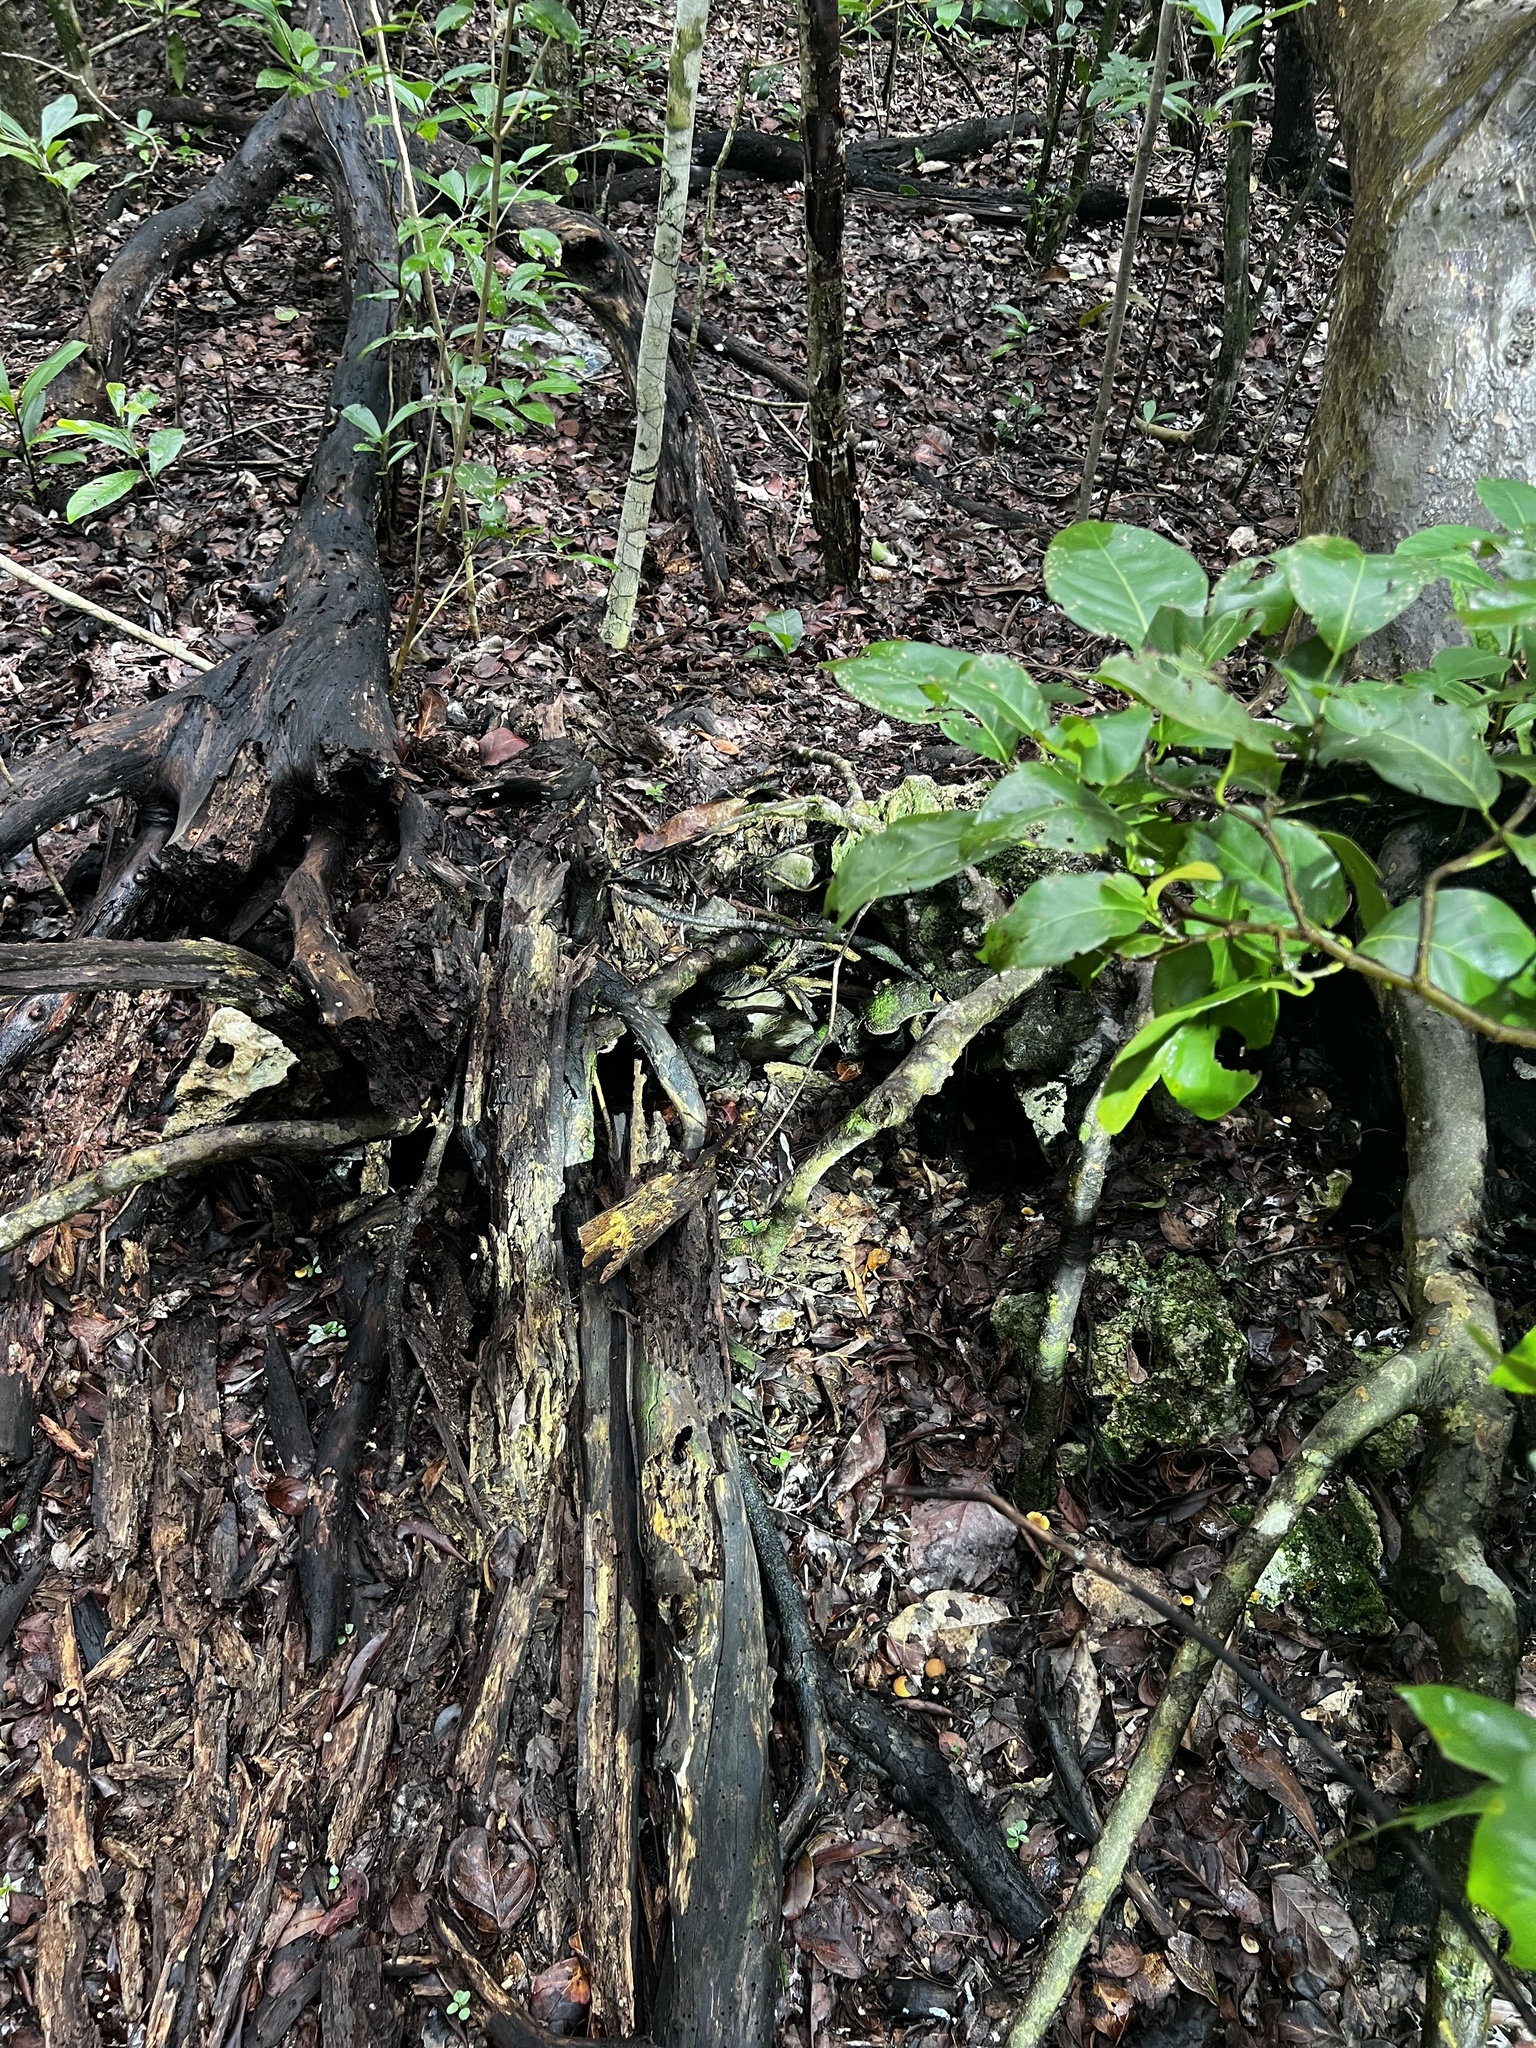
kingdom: Animalia
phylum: Chordata
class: Mammalia
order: Didelphimorphia
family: Didelphidae
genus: Didelphis
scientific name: Didelphis virginiana
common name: Virginia opossum
